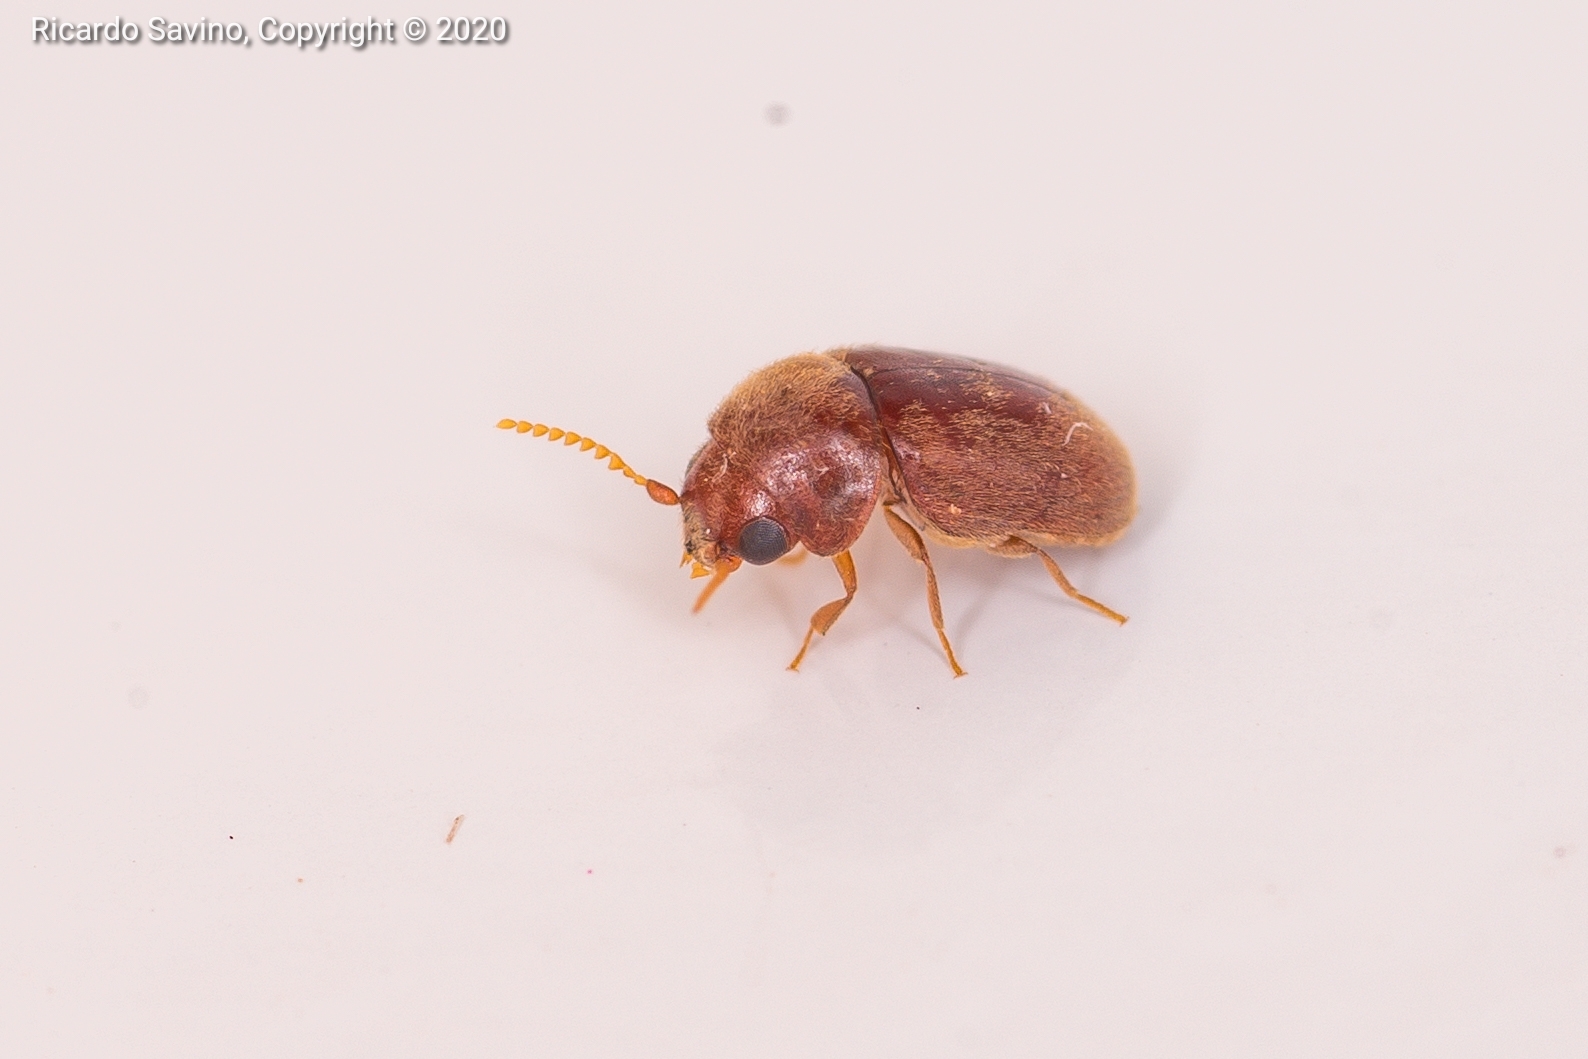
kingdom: Animalia
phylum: Arthropoda
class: Insecta
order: Coleoptera
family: Anobiidae
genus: Lasioderma
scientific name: Lasioderma serricorne
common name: Cigarette beetle
